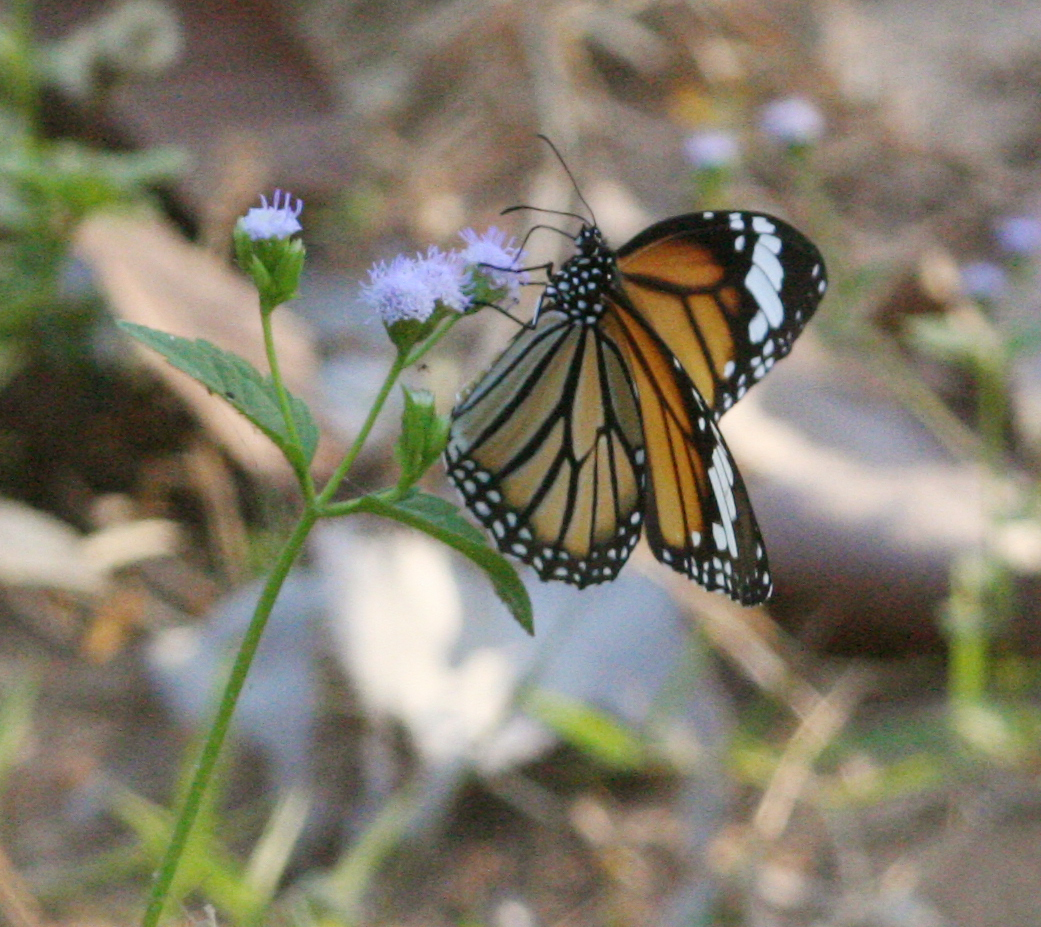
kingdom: Animalia
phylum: Arthropoda
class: Insecta
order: Lepidoptera
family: Nymphalidae
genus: Danaus
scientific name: Danaus genutia
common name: Common tiger butterfly
